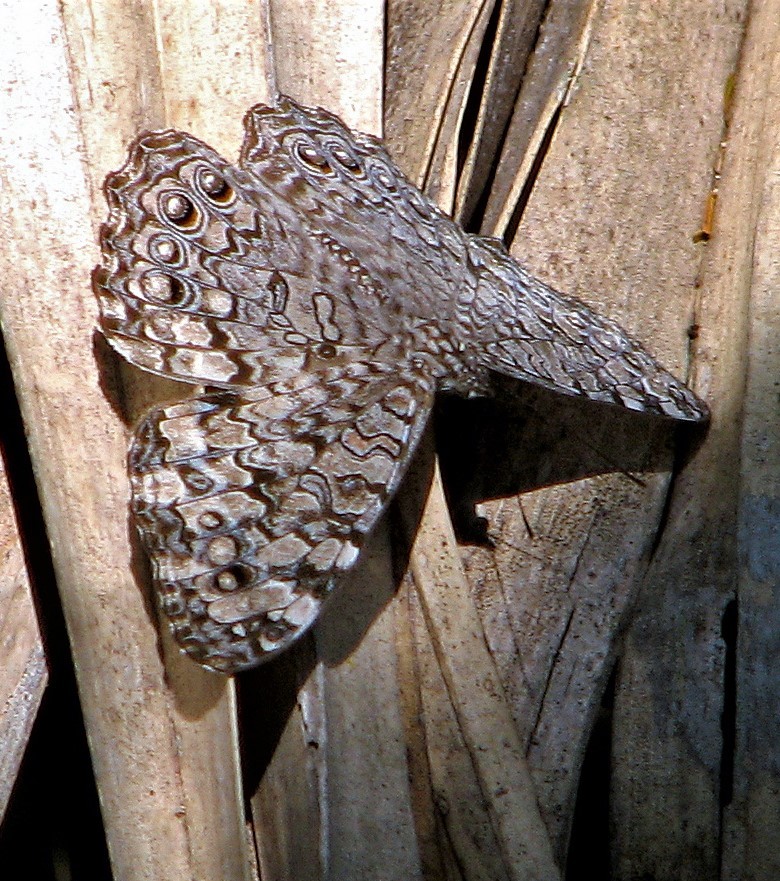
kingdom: Animalia
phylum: Arthropoda
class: Insecta
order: Lepidoptera
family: Nymphalidae
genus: Hamadryas
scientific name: Hamadryas februa
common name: Gray cracker
